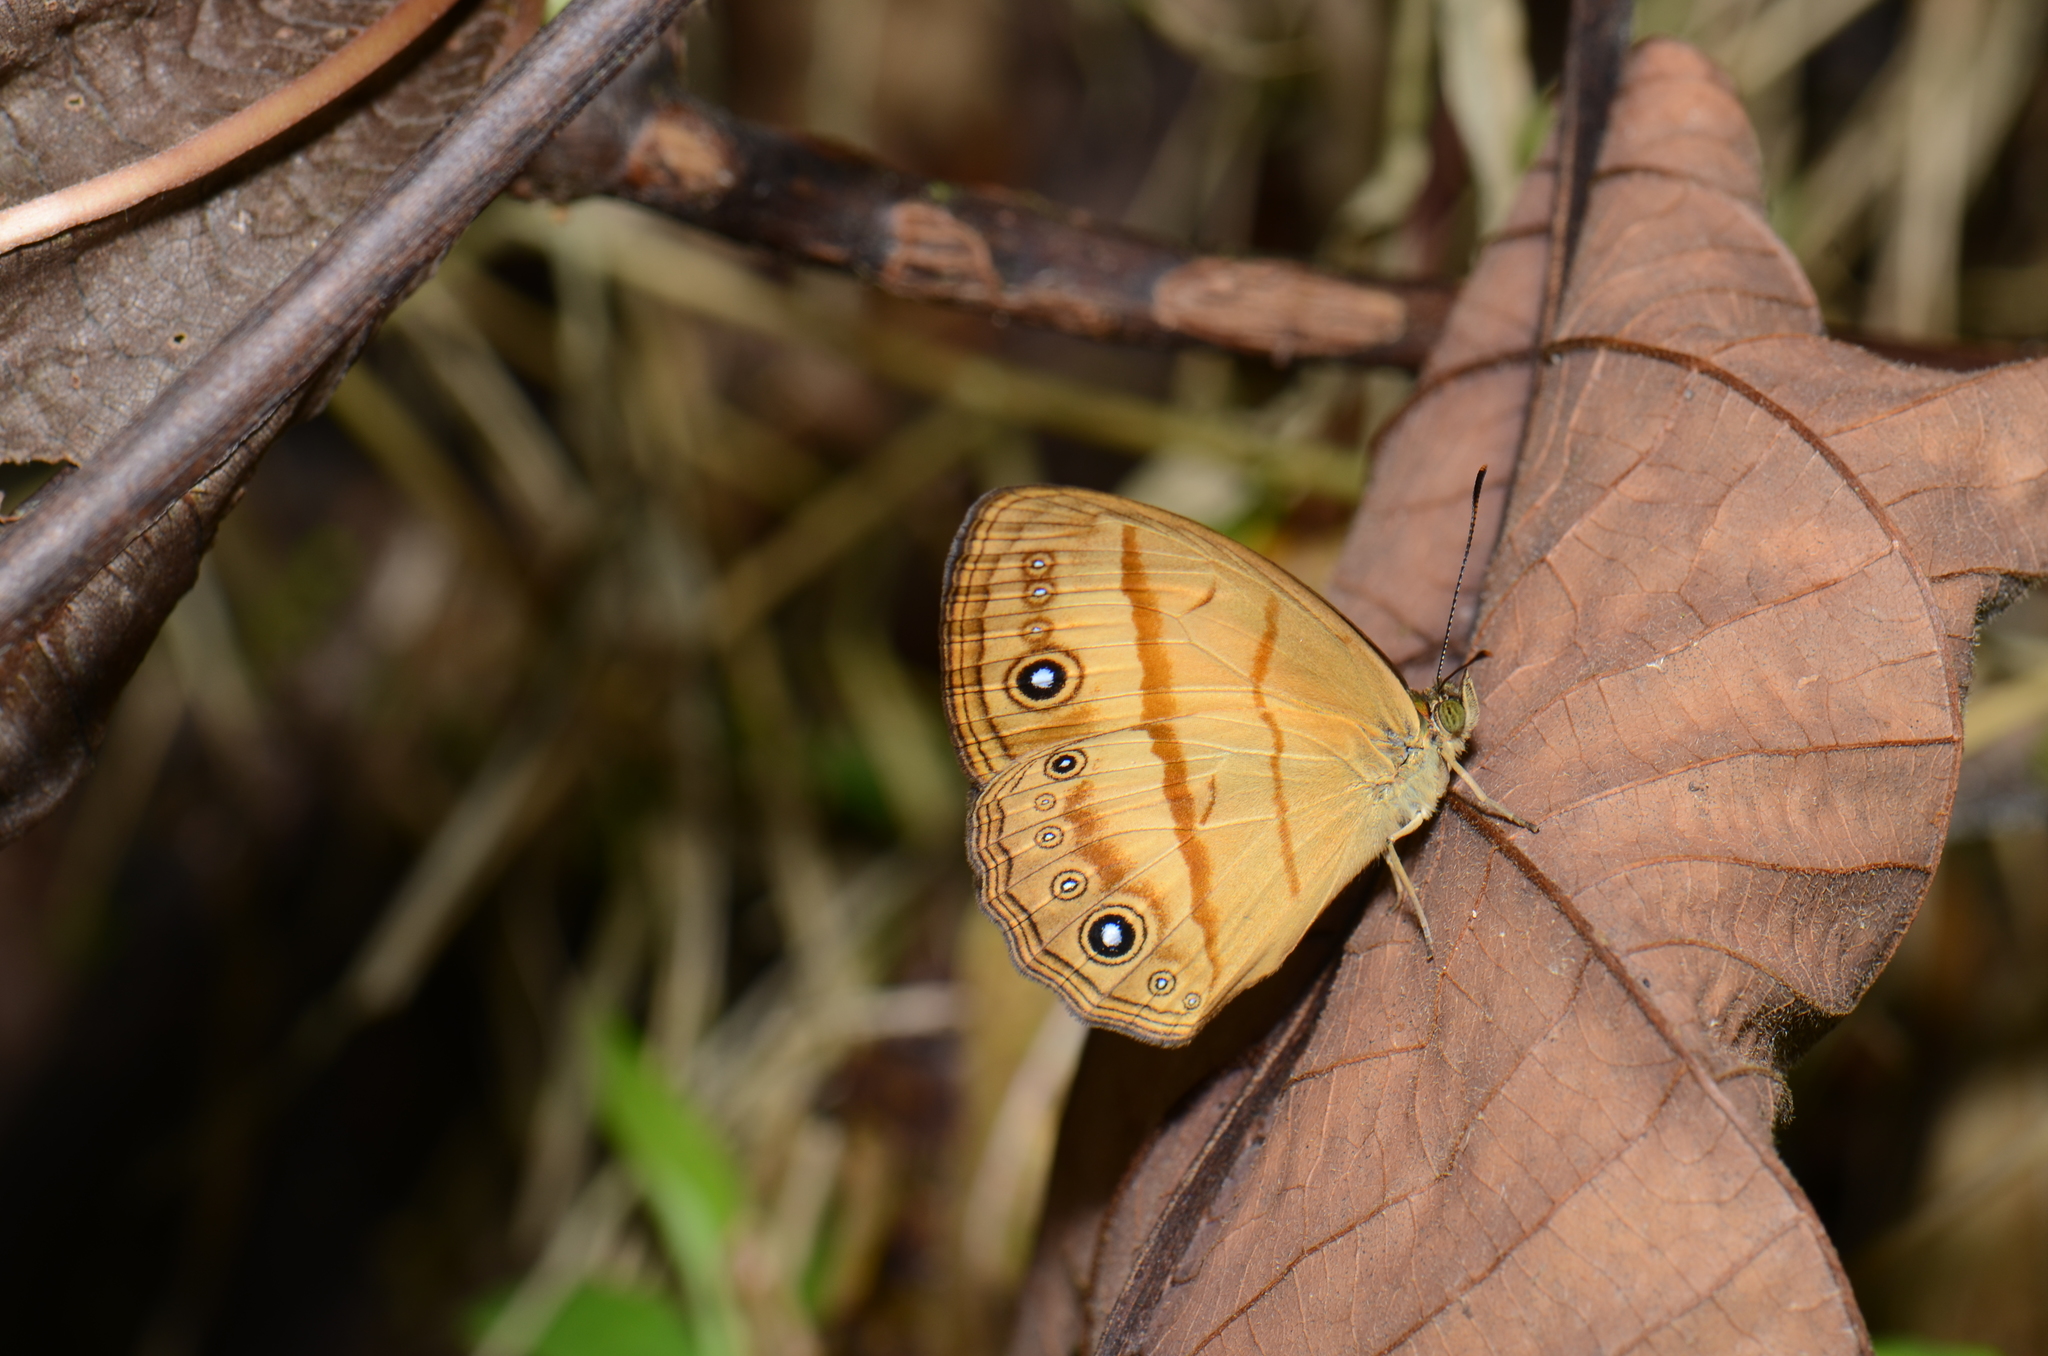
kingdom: Animalia
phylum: Arthropoda
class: Insecta
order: Lepidoptera
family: Nymphalidae
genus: Mycalesis
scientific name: Mycalesis marginata
